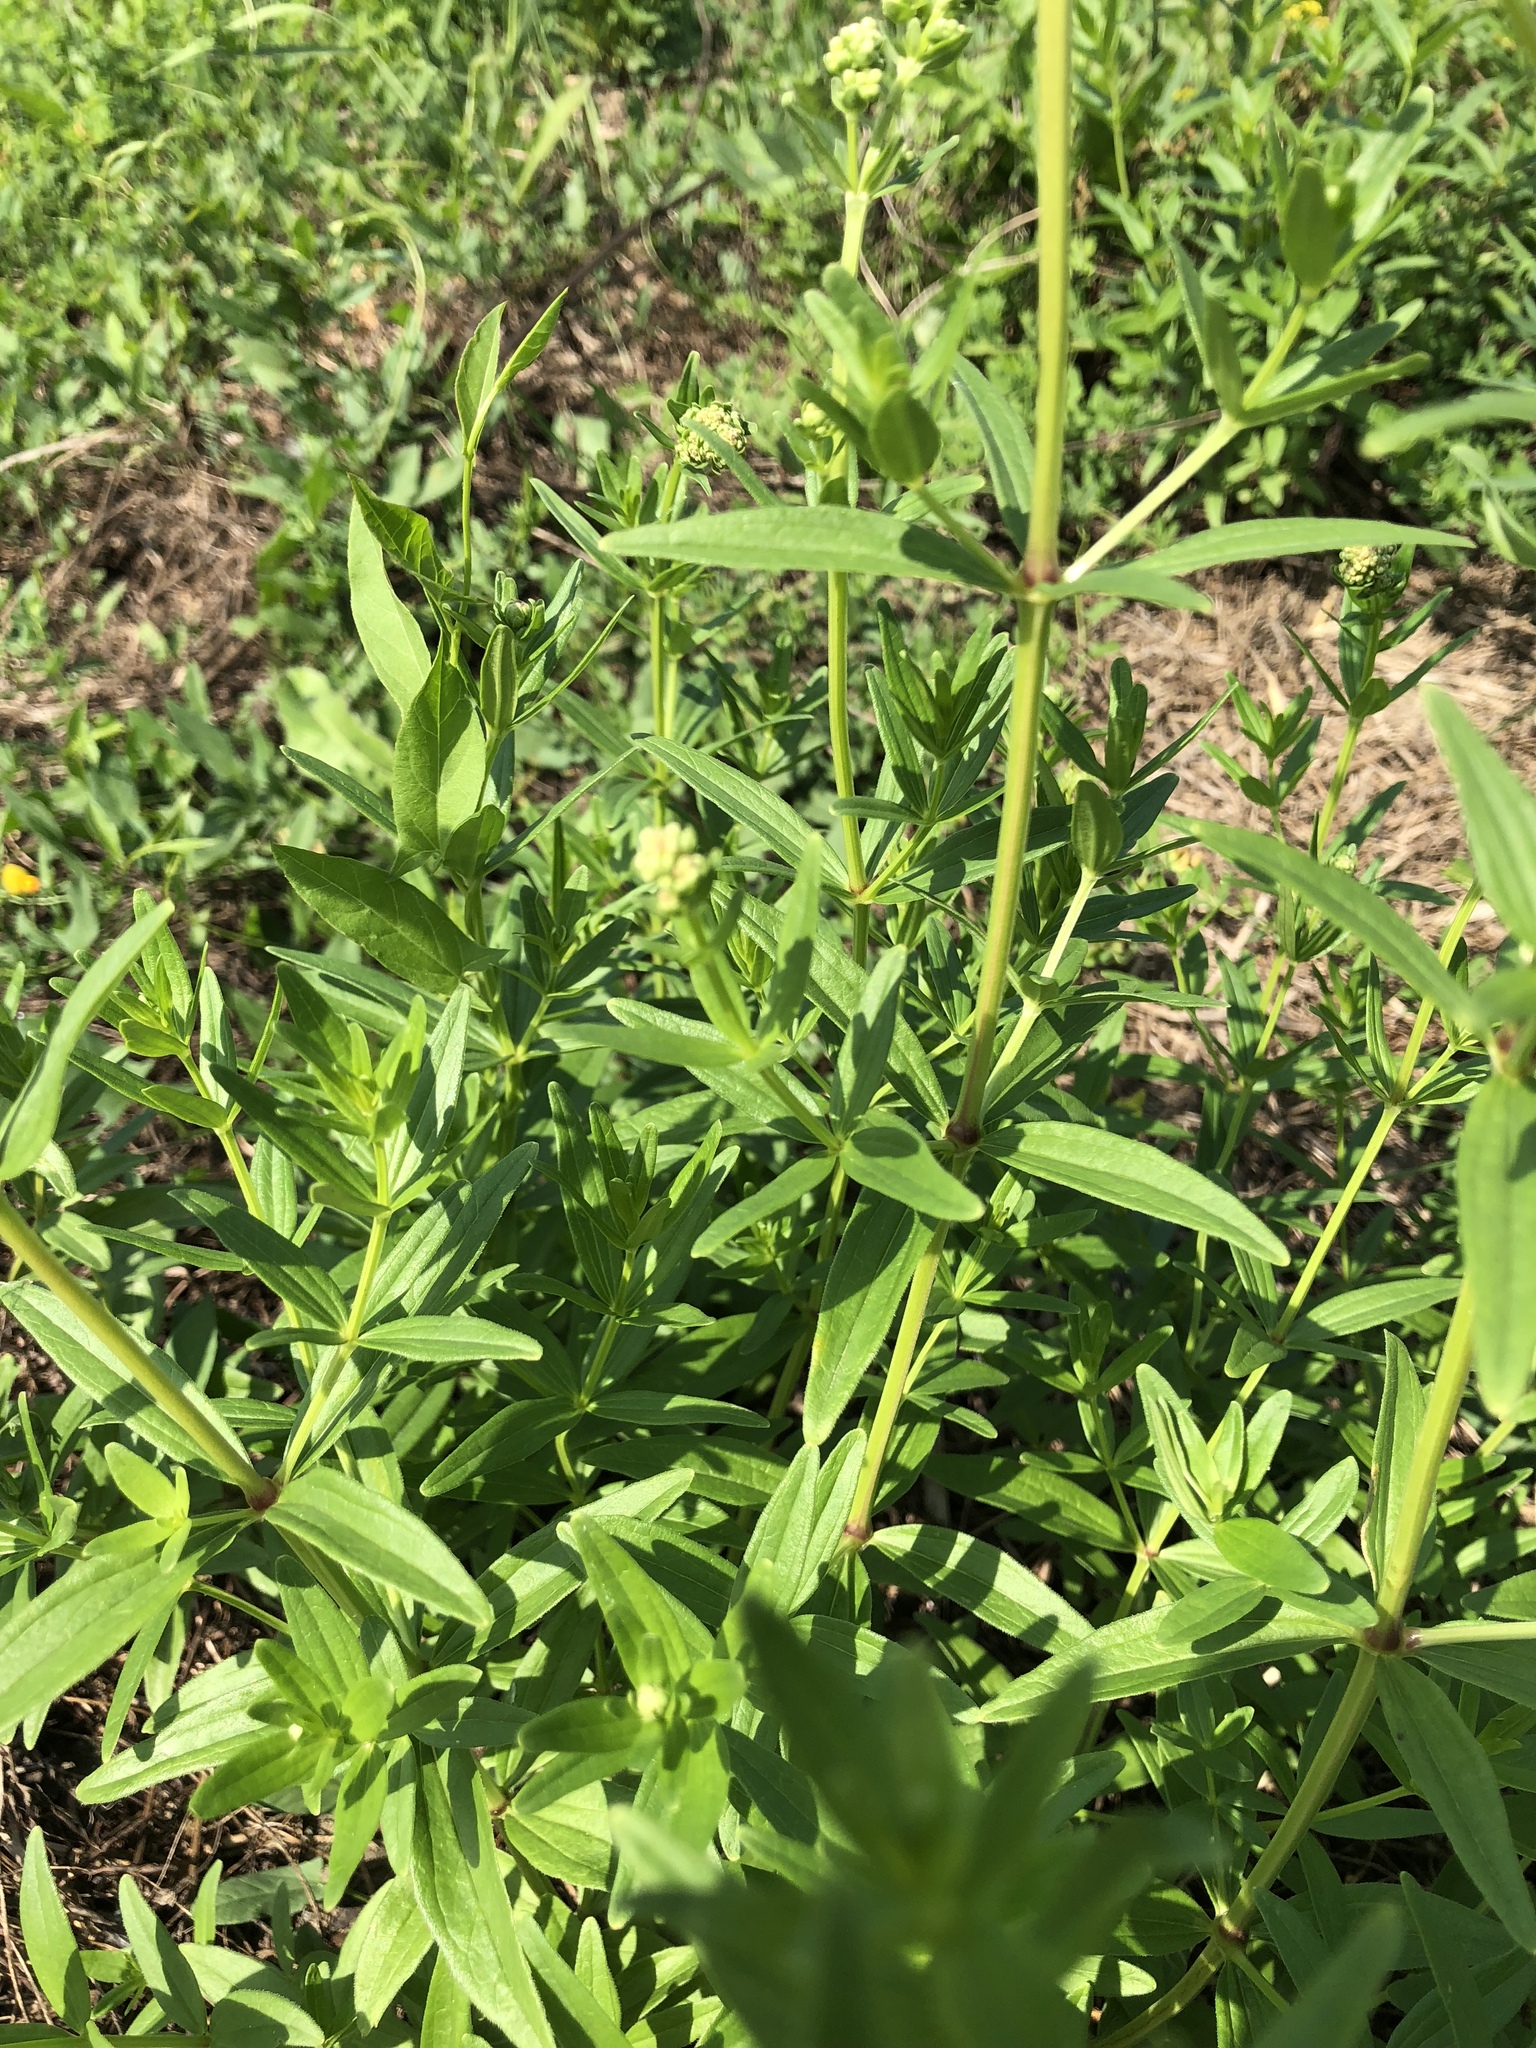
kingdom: Plantae
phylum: Tracheophyta
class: Magnoliopsida
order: Gentianales
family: Rubiaceae
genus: Galium
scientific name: Galium boreale
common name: Northern bedstraw
